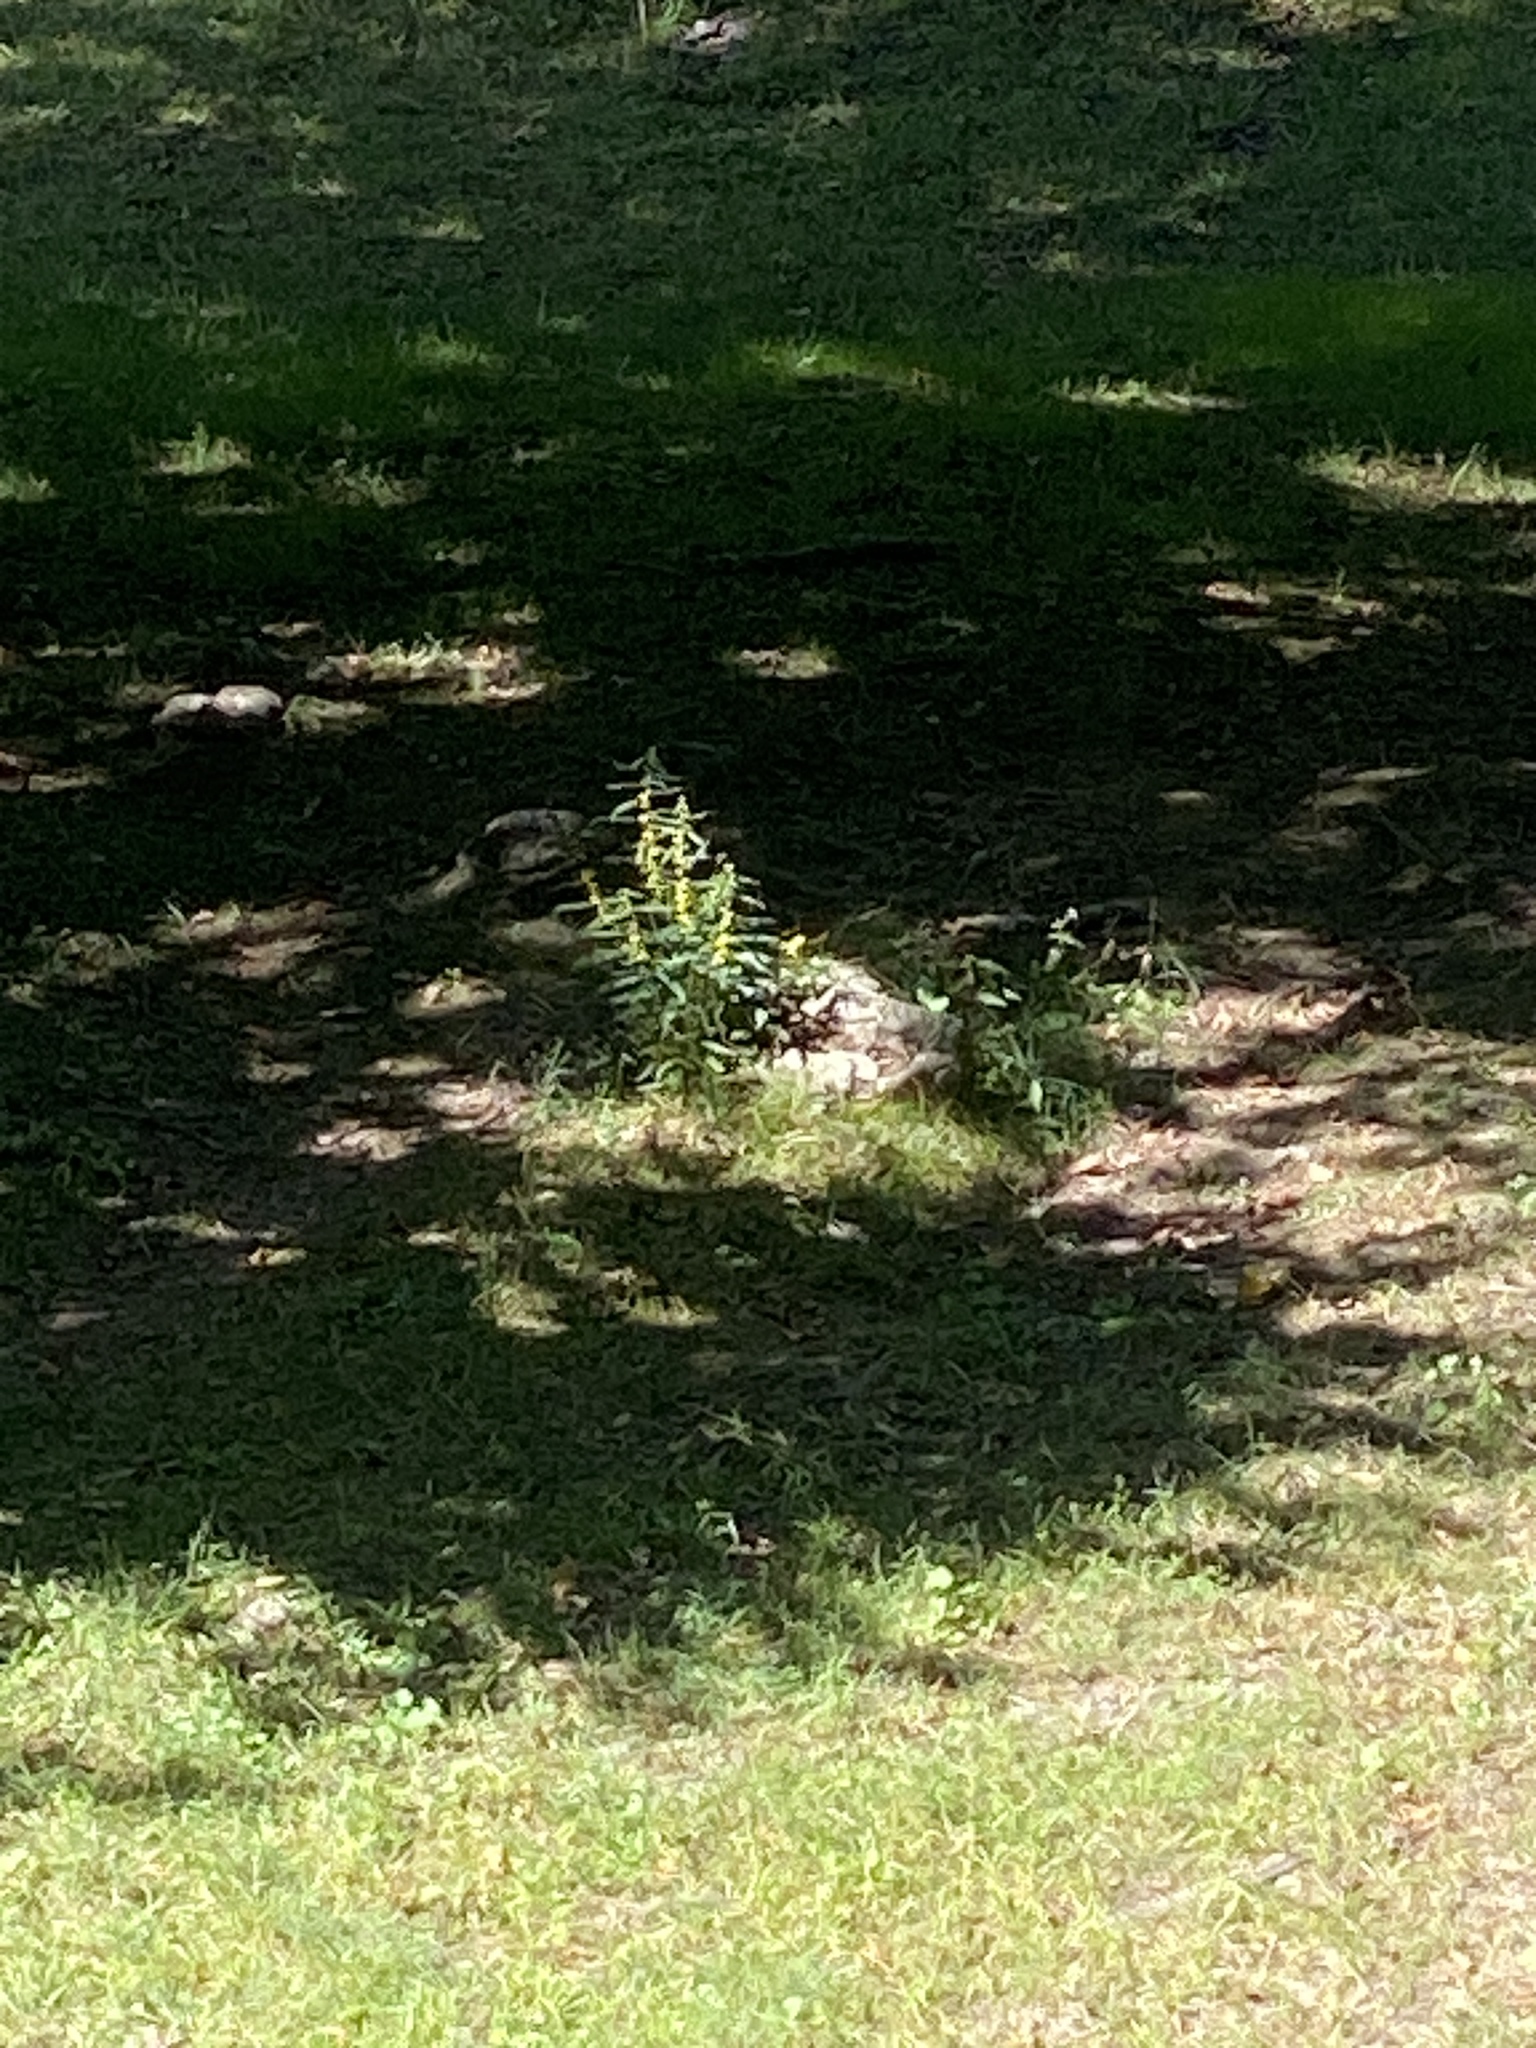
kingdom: Plantae
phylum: Tracheophyta
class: Magnoliopsida
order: Asterales
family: Asteraceae
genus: Solidago
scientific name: Solidago caesia
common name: Woodland goldenrod
